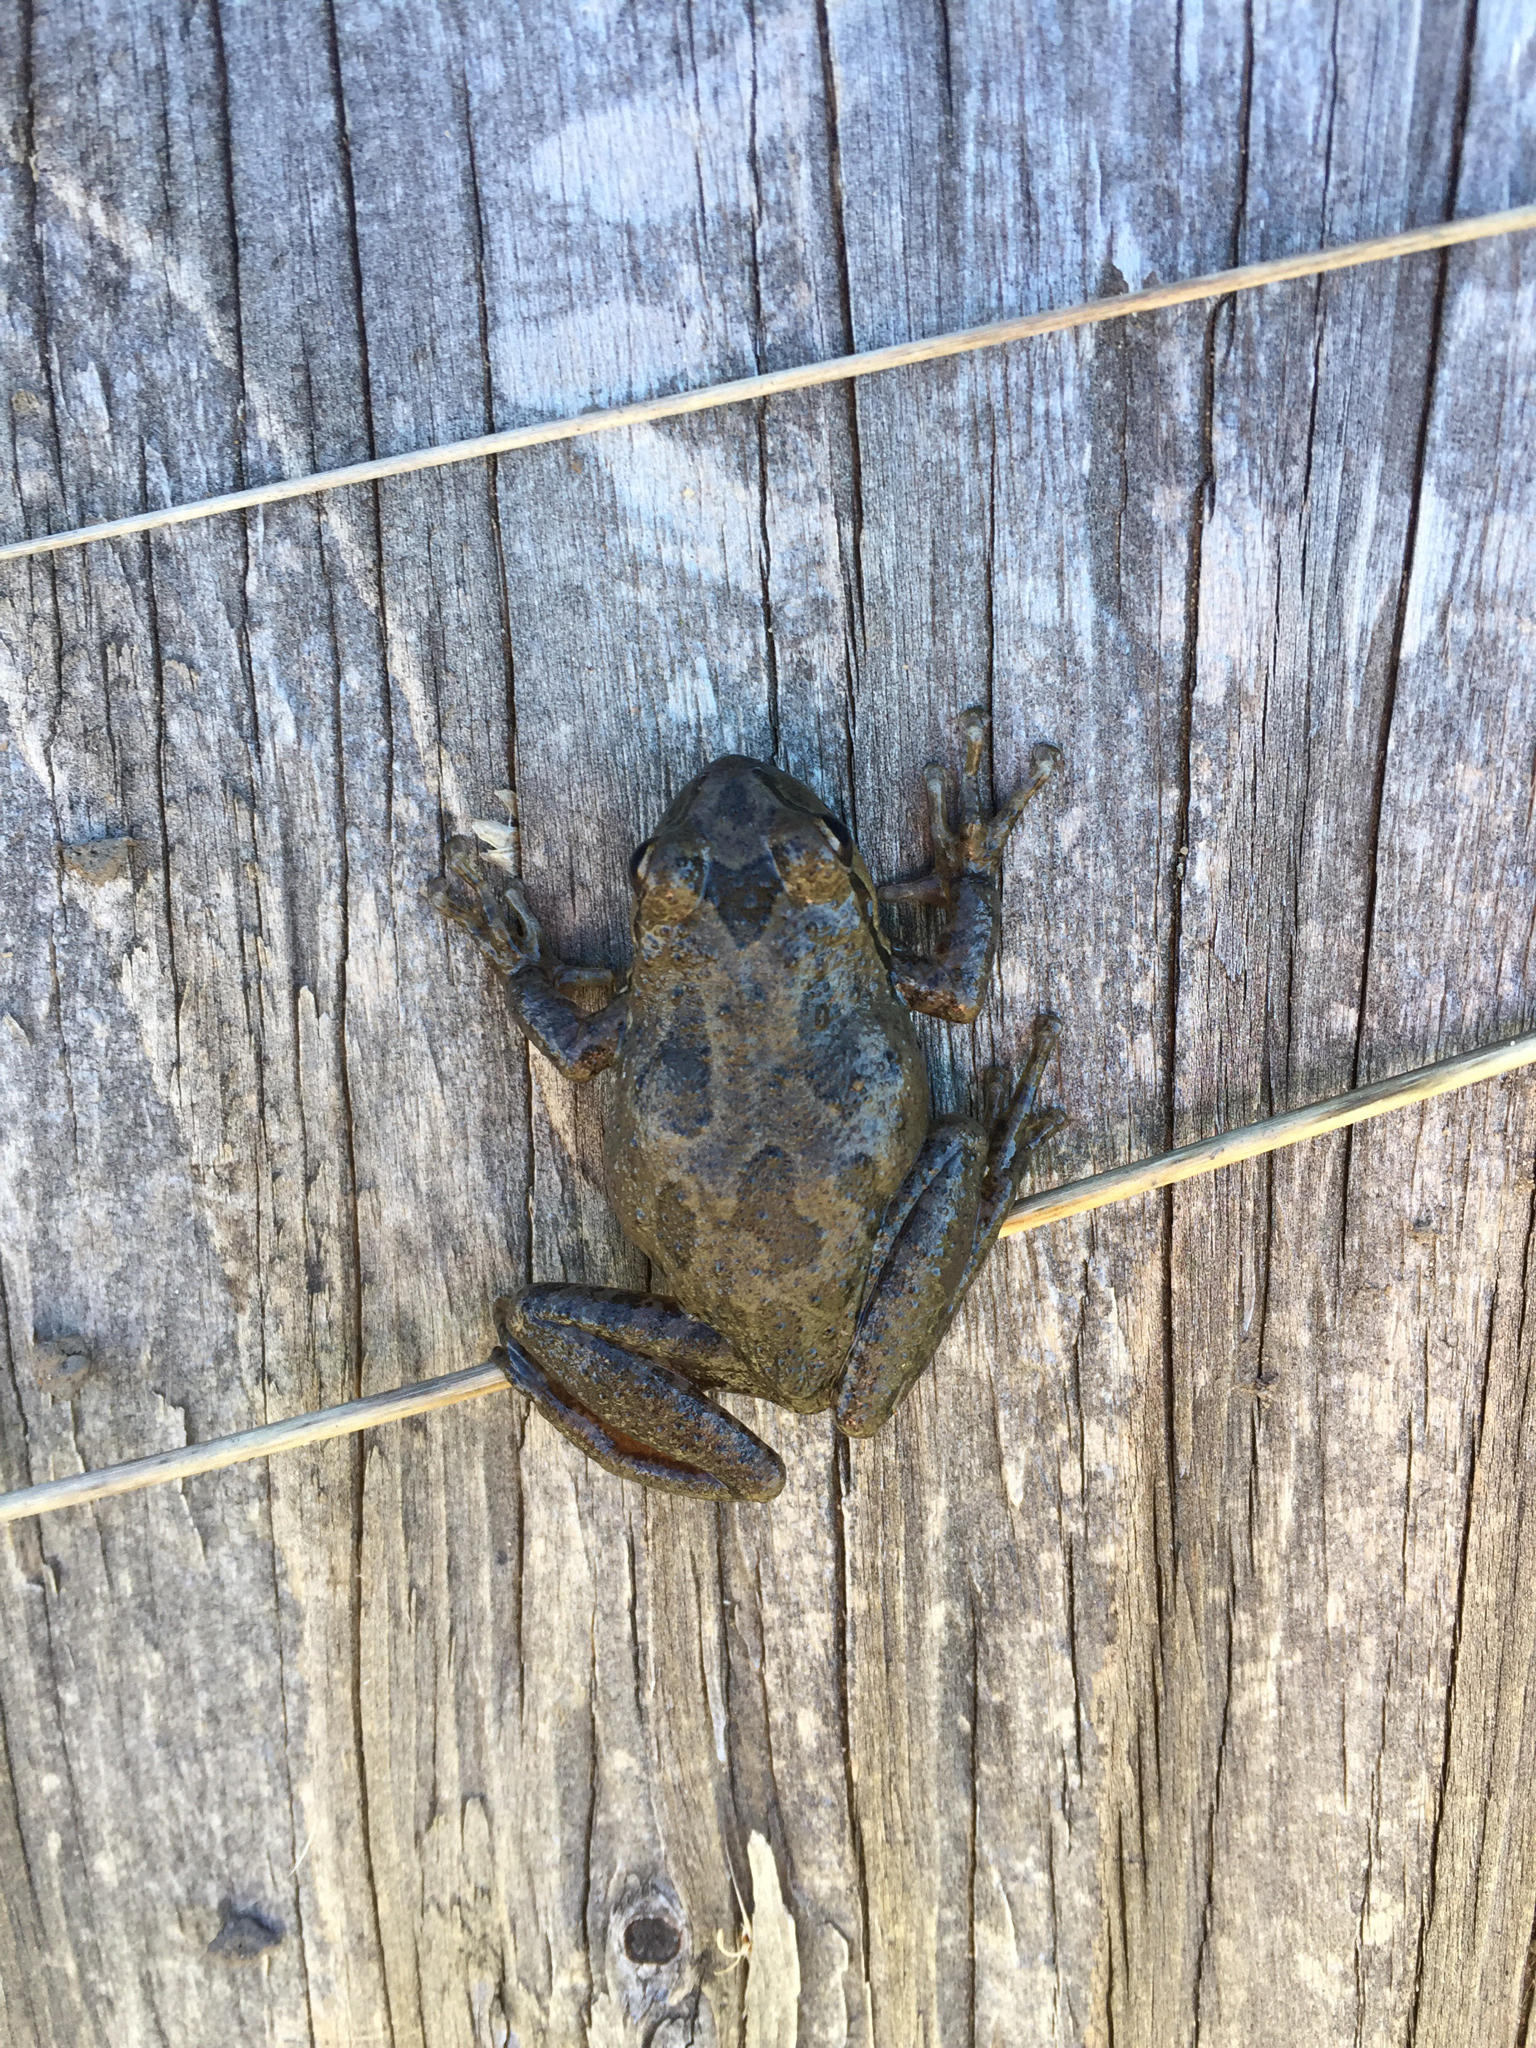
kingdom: Animalia
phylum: Chordata
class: Amphibia
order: Anura
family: Hylidae
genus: Pseudacris
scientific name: Pseudacris regilla
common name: Pacific chorus frog
